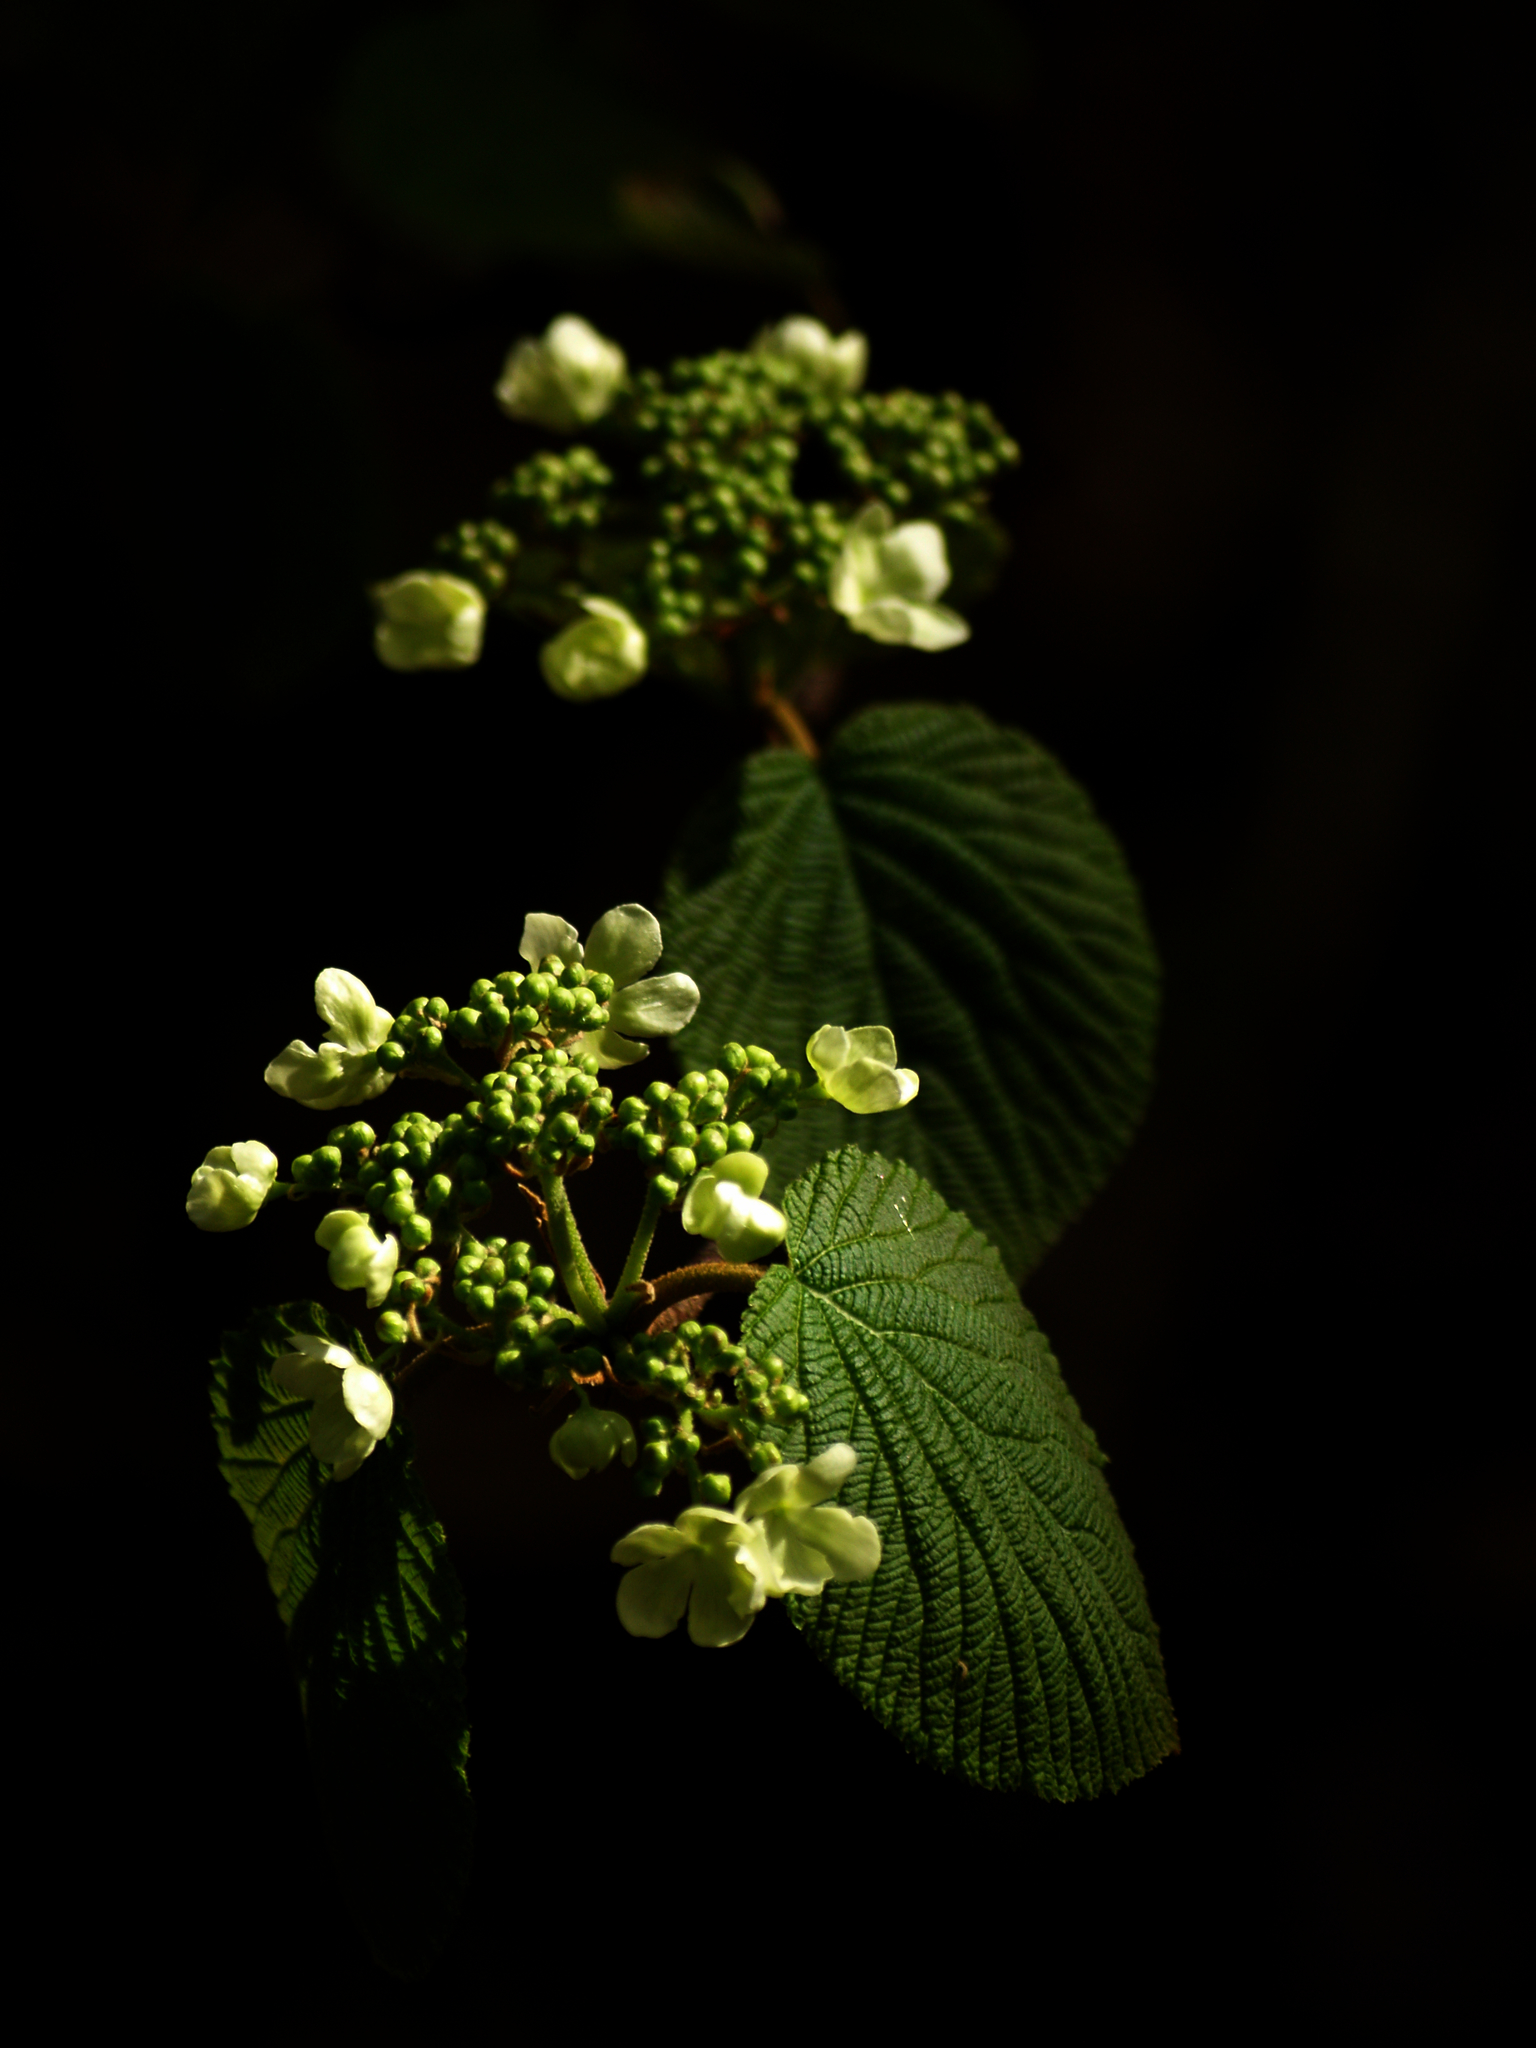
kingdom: Plantae
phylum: Tracheophyta
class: Magnoliopsida
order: Dipsacales
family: Viburnaceae
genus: Viburnum
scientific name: Viburnum lantanoides
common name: Hobblebush
